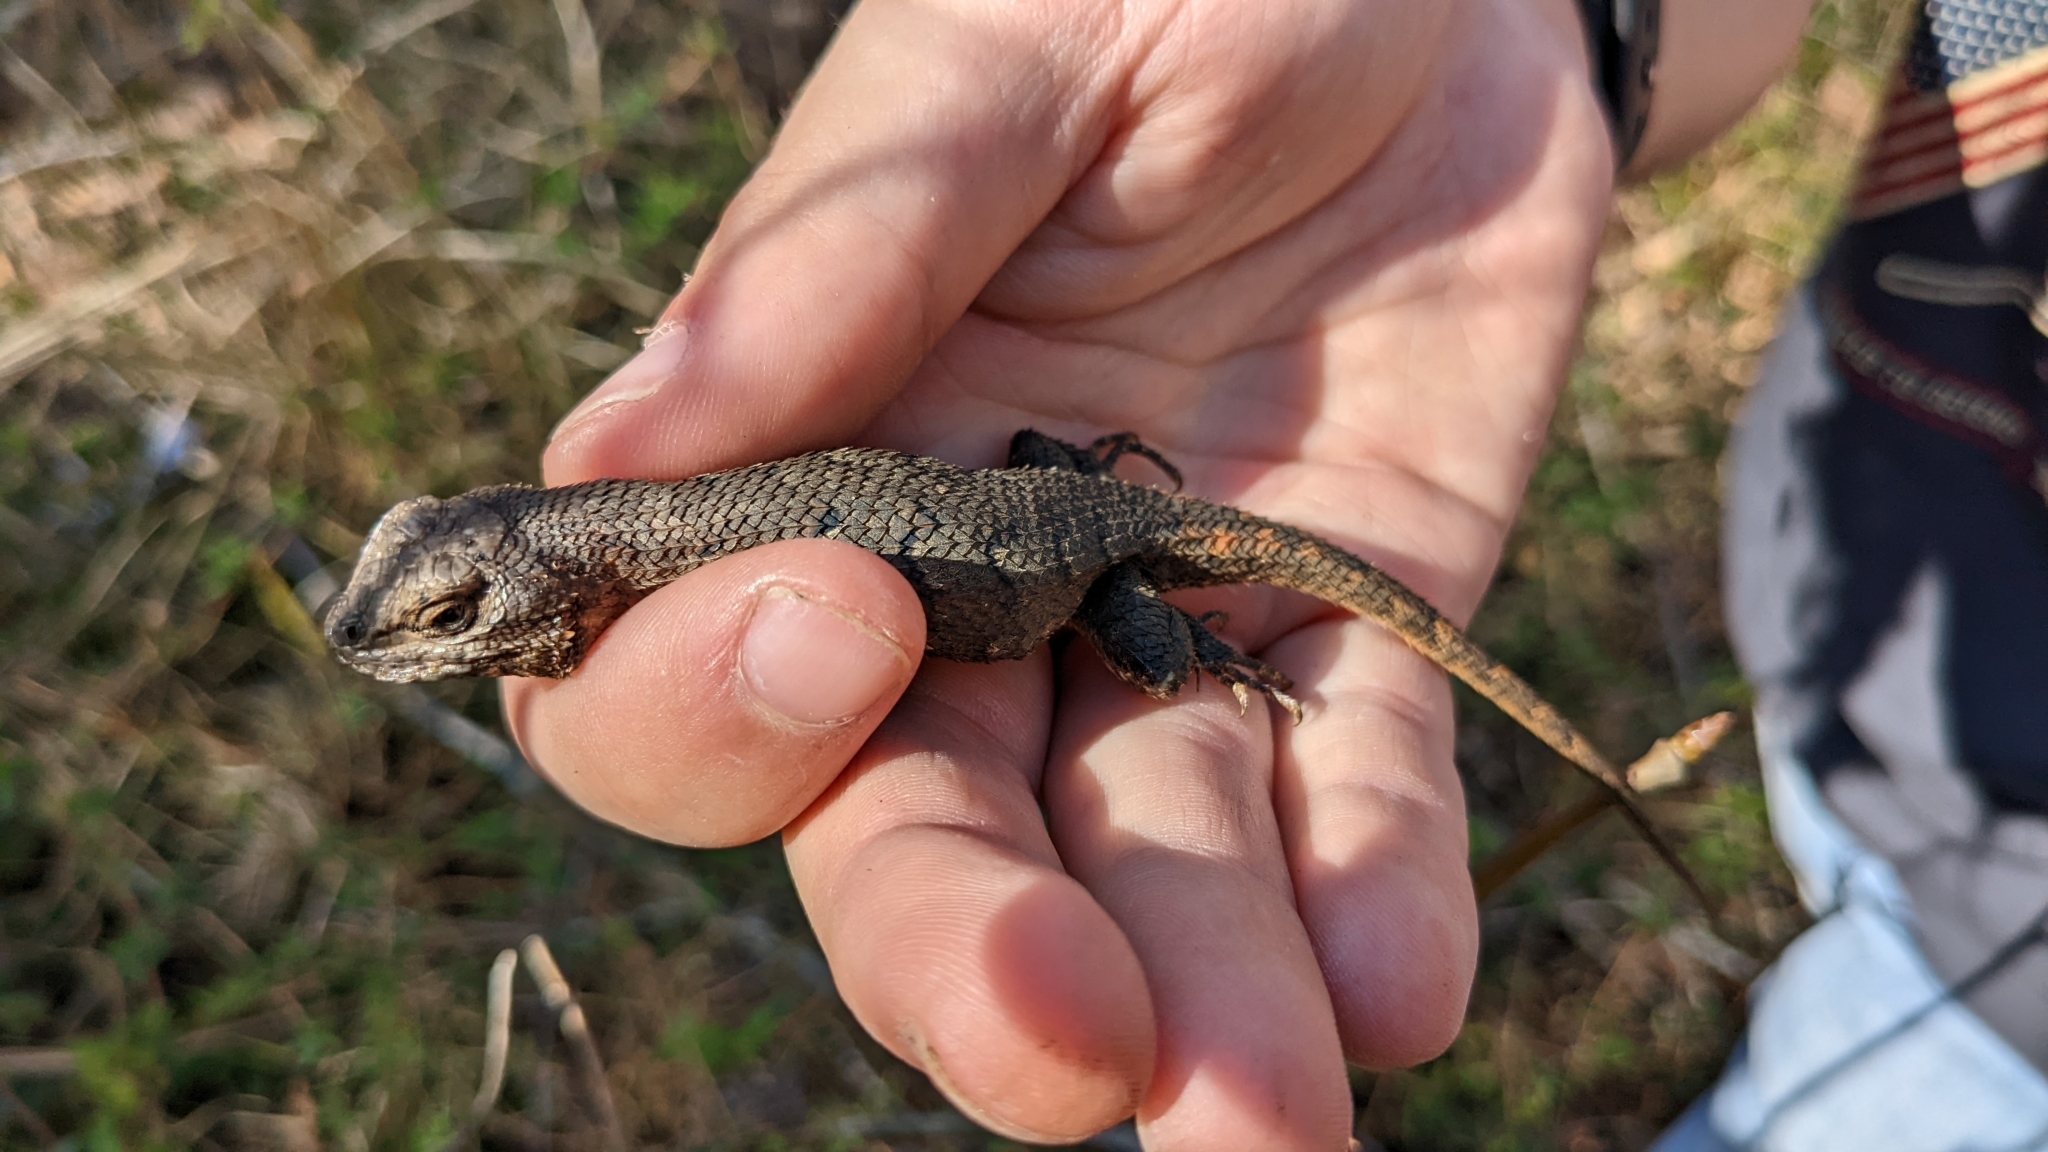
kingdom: Animalia
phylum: Chordata
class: Squamata
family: Phrynosomatidae
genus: Sceloporus
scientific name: Sceloporus consobrinus
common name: Southern prairie lizard
